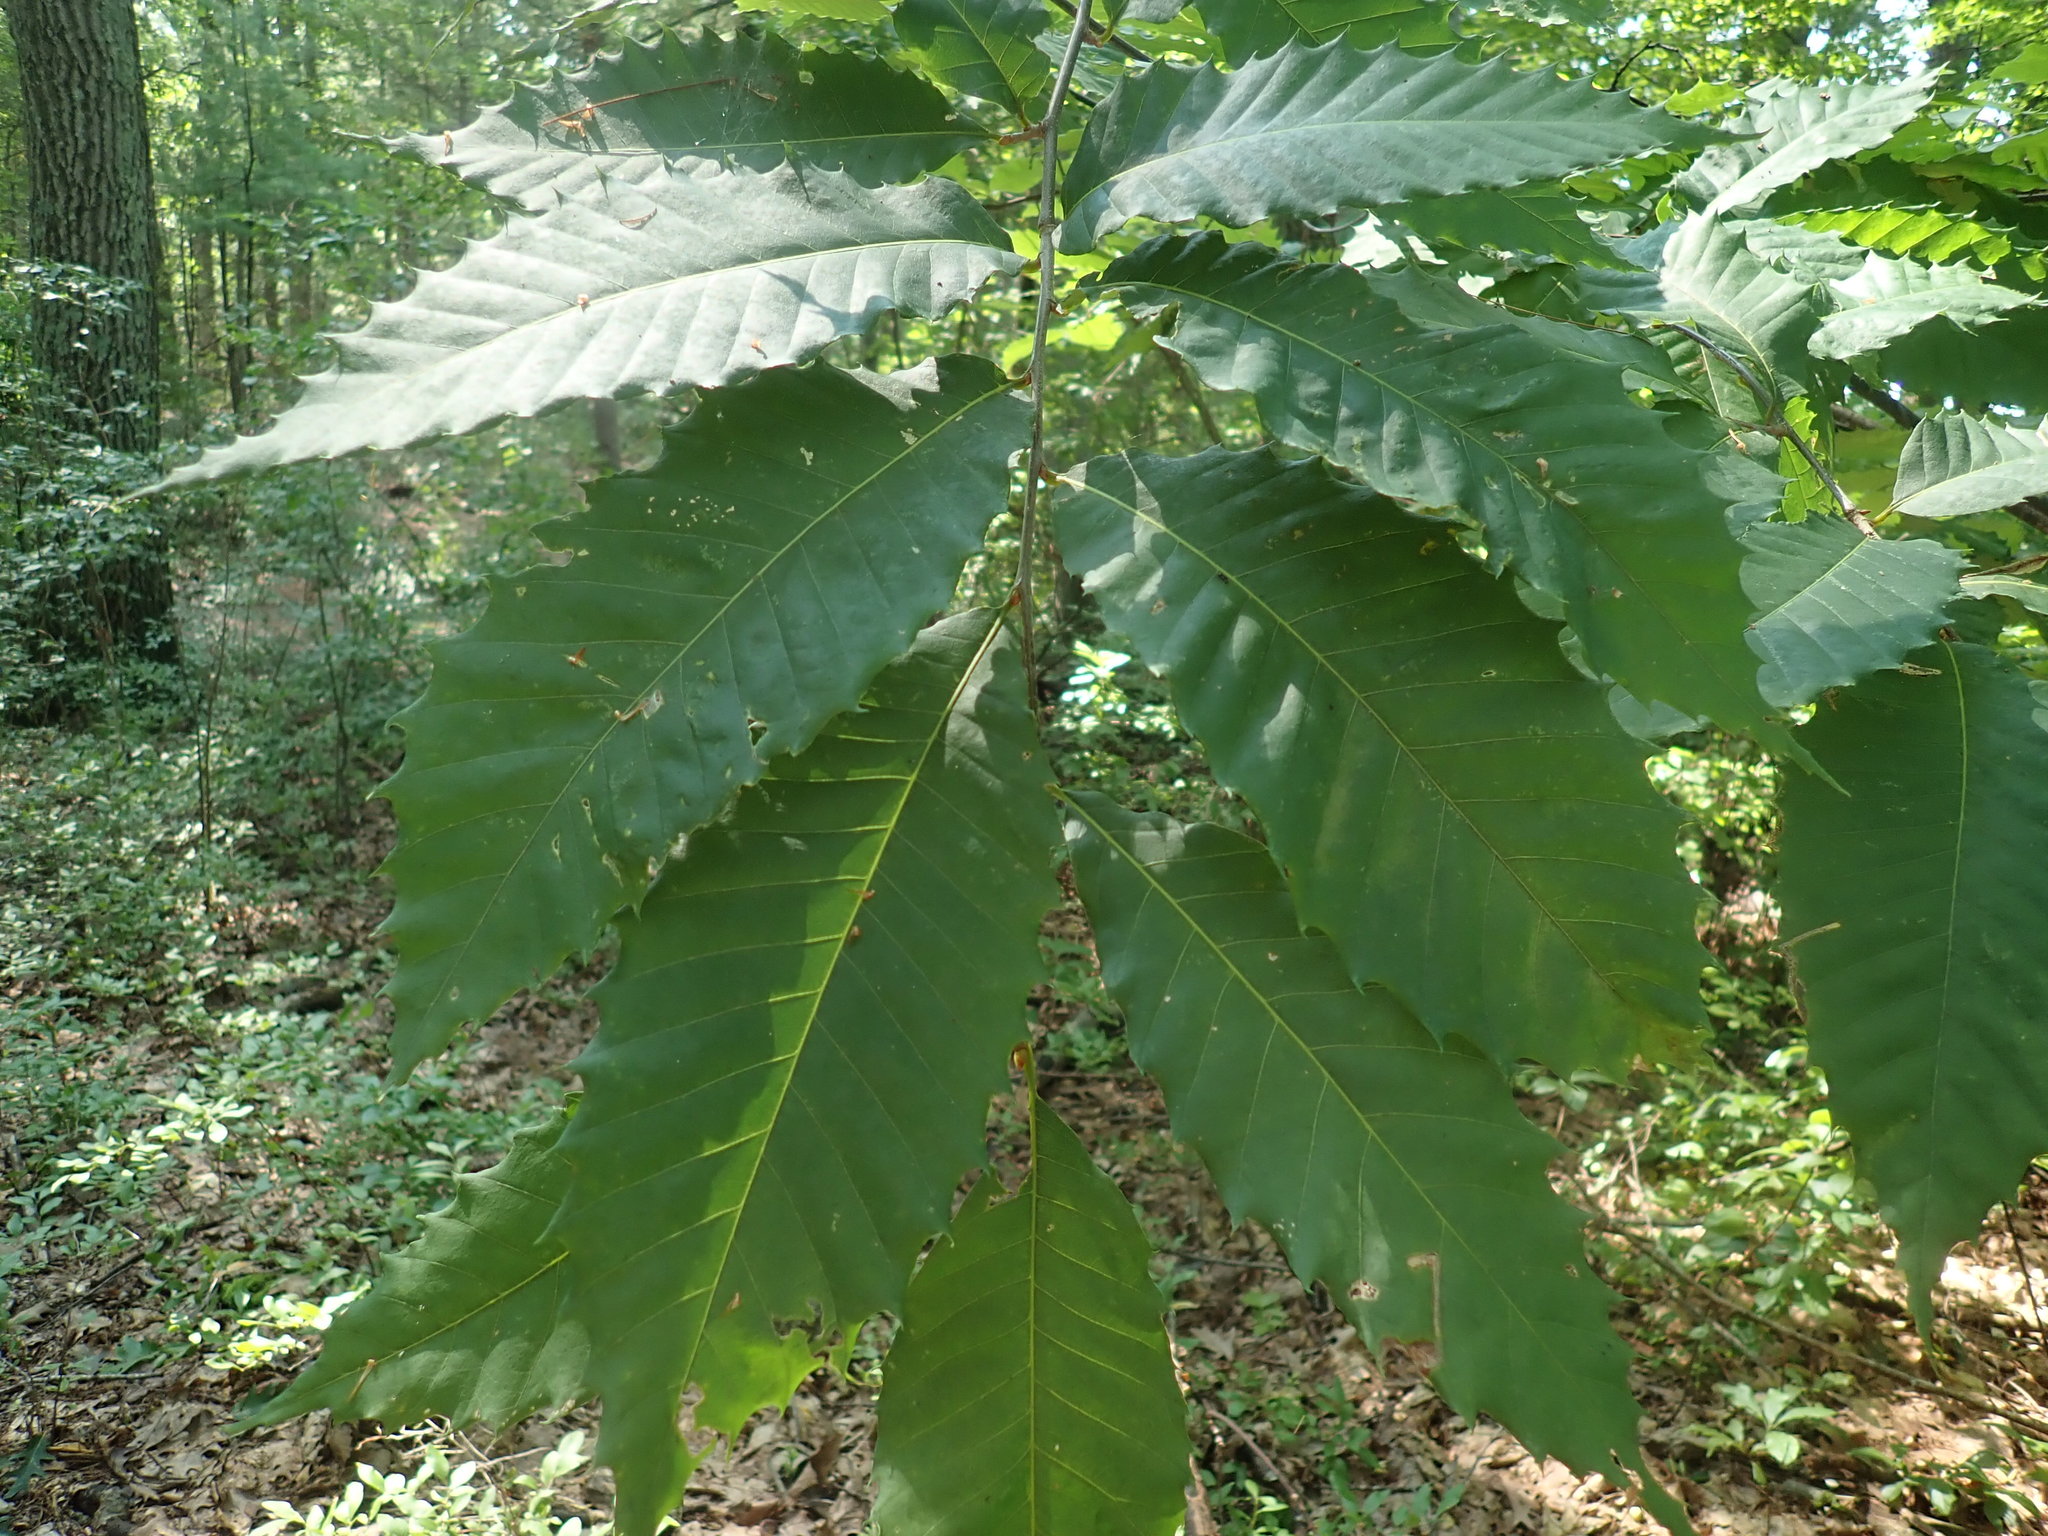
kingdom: Plantae
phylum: Tracheophyta
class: Magnoliopsida
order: Fagales
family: Fagaceae
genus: Castanea
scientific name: Castanea dentata
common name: American chestnut
